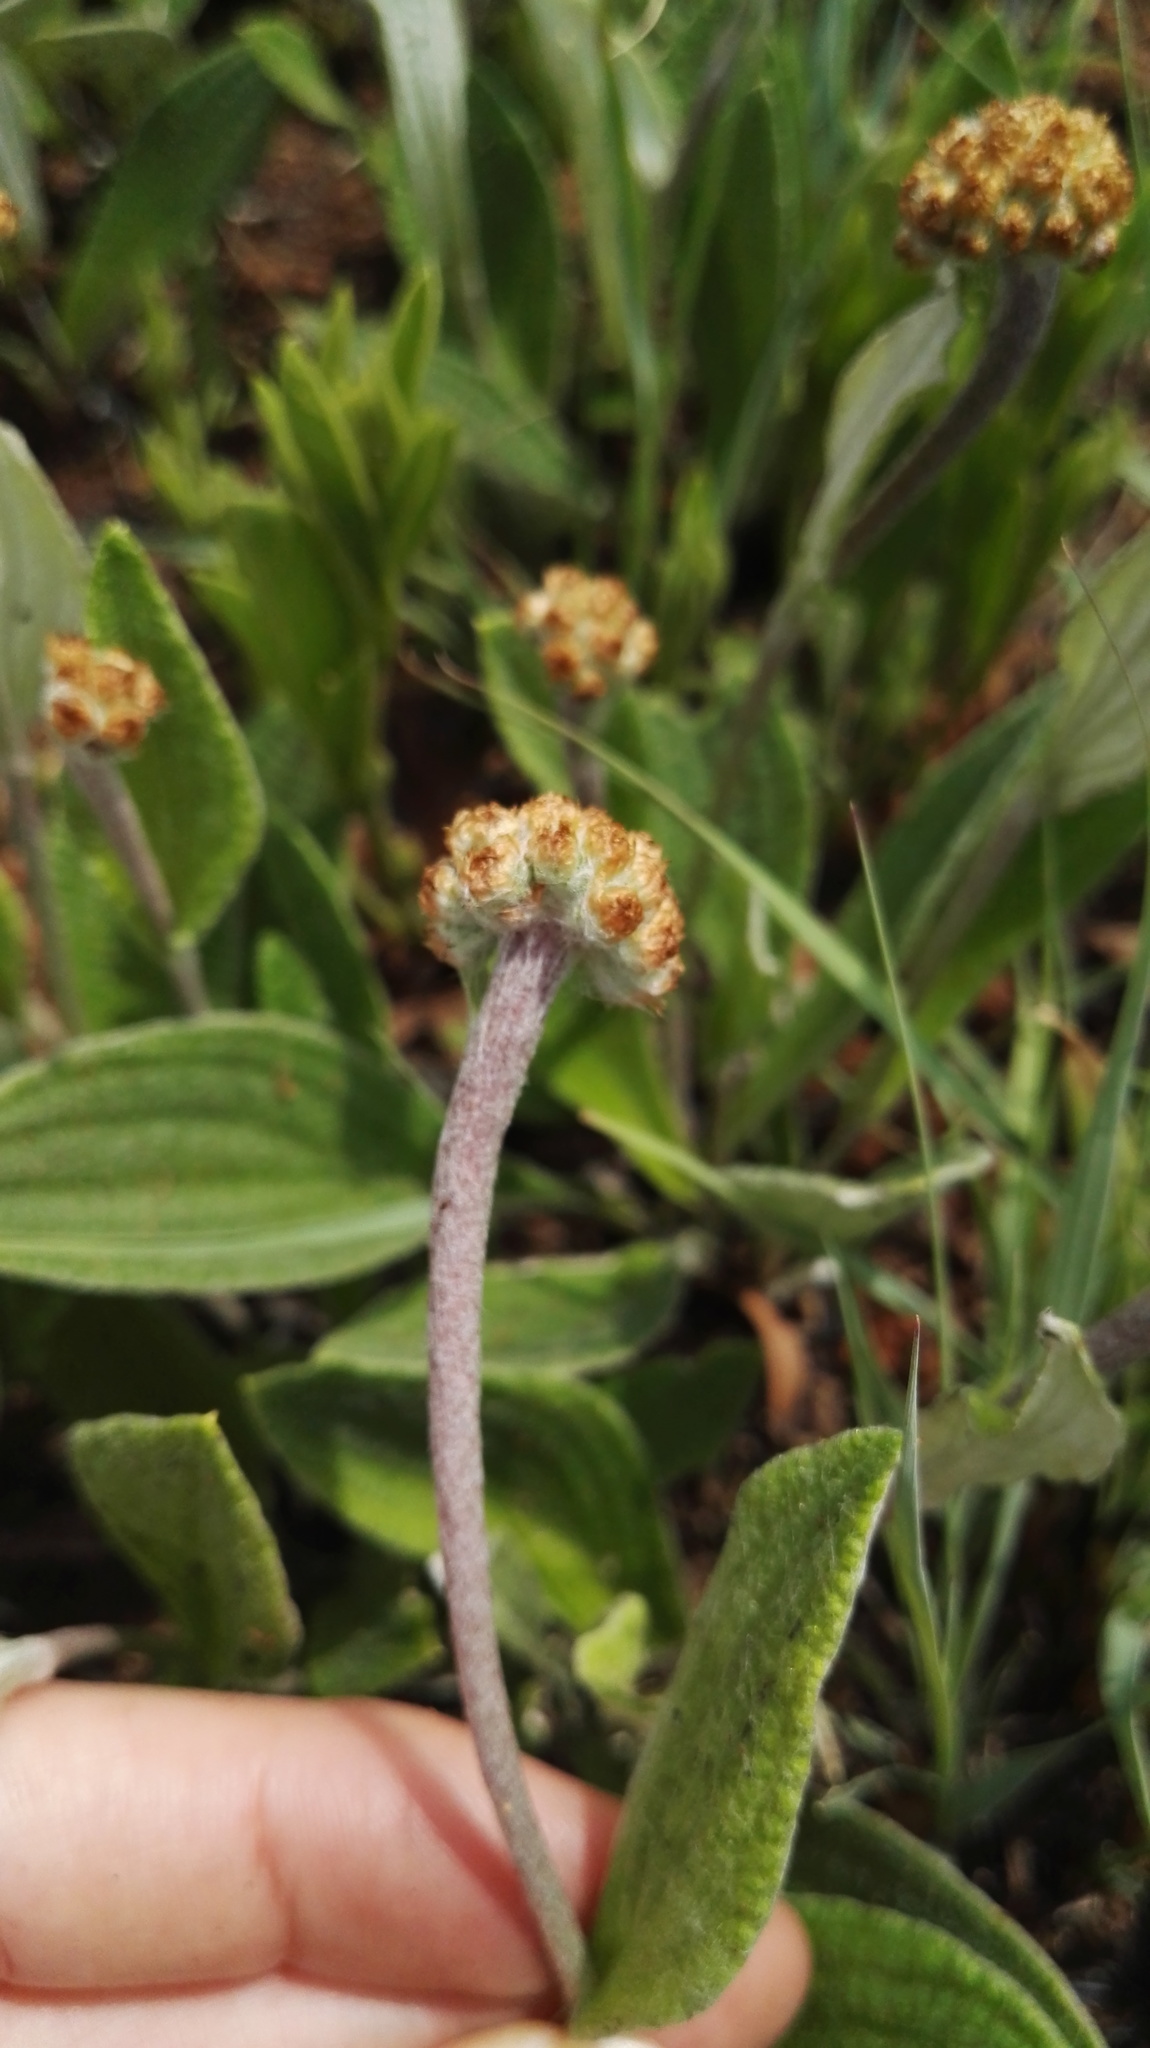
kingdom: Plantae
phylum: Tracheophyta
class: Magnoliopsida
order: Asterales
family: Asteraceae
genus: Helichrysum
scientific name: Helichrysum nudifolium
